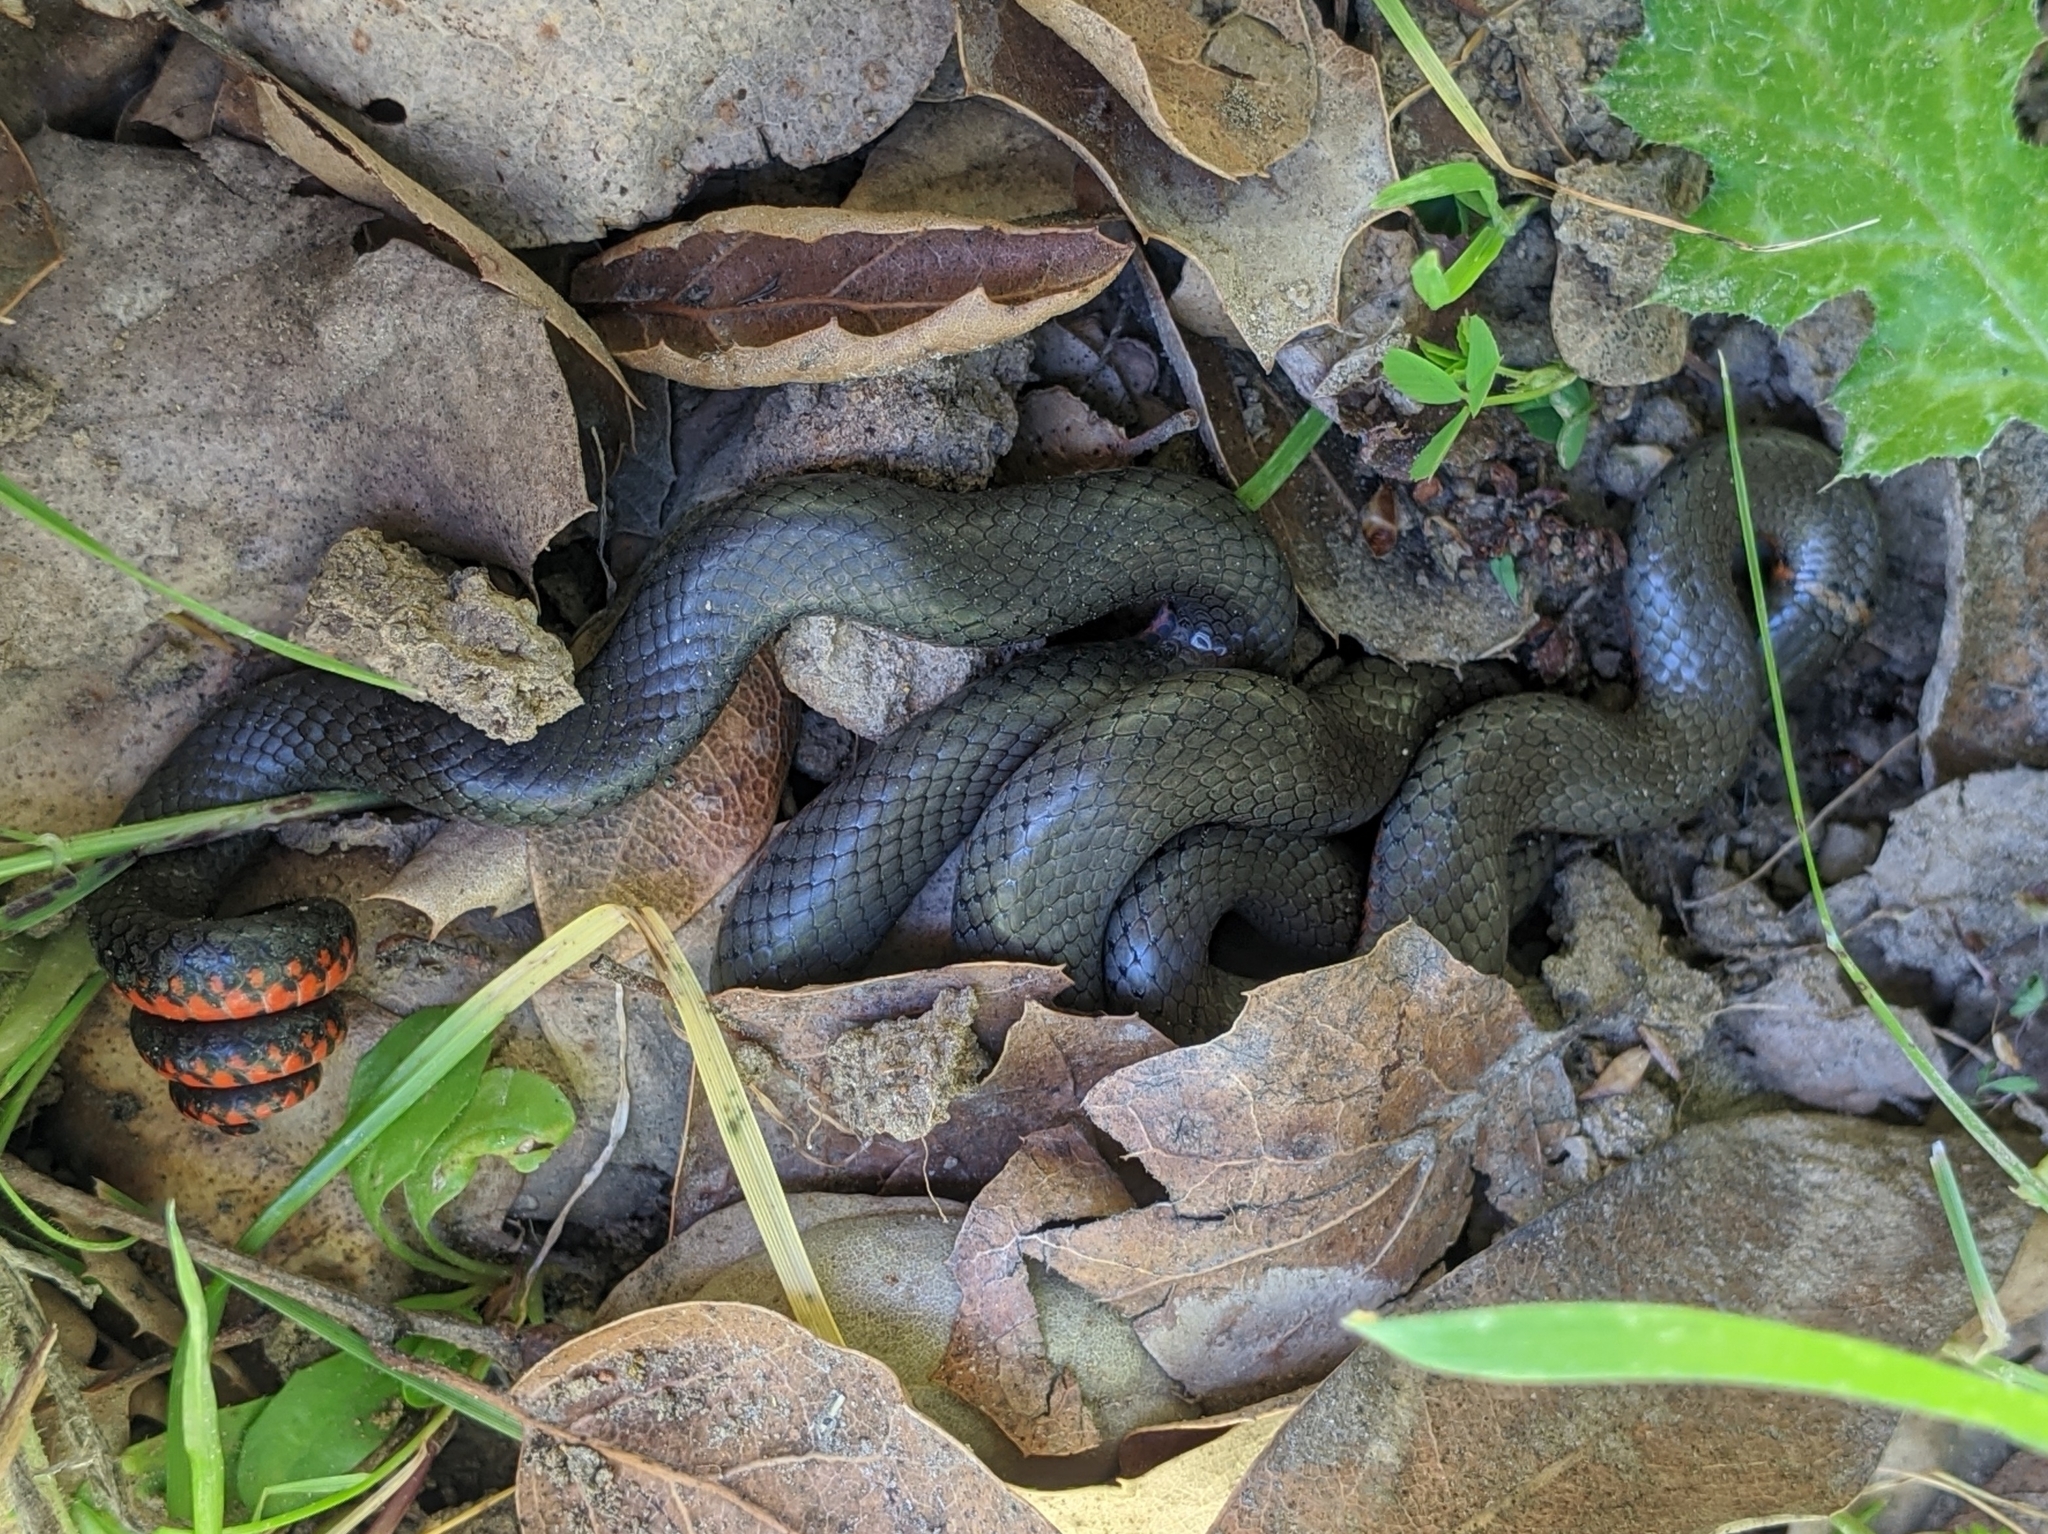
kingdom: Animalia
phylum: Chordata
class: Squamata
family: Colubridae
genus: Diadophis
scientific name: Diadophis punctatus
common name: Ringneck snake
